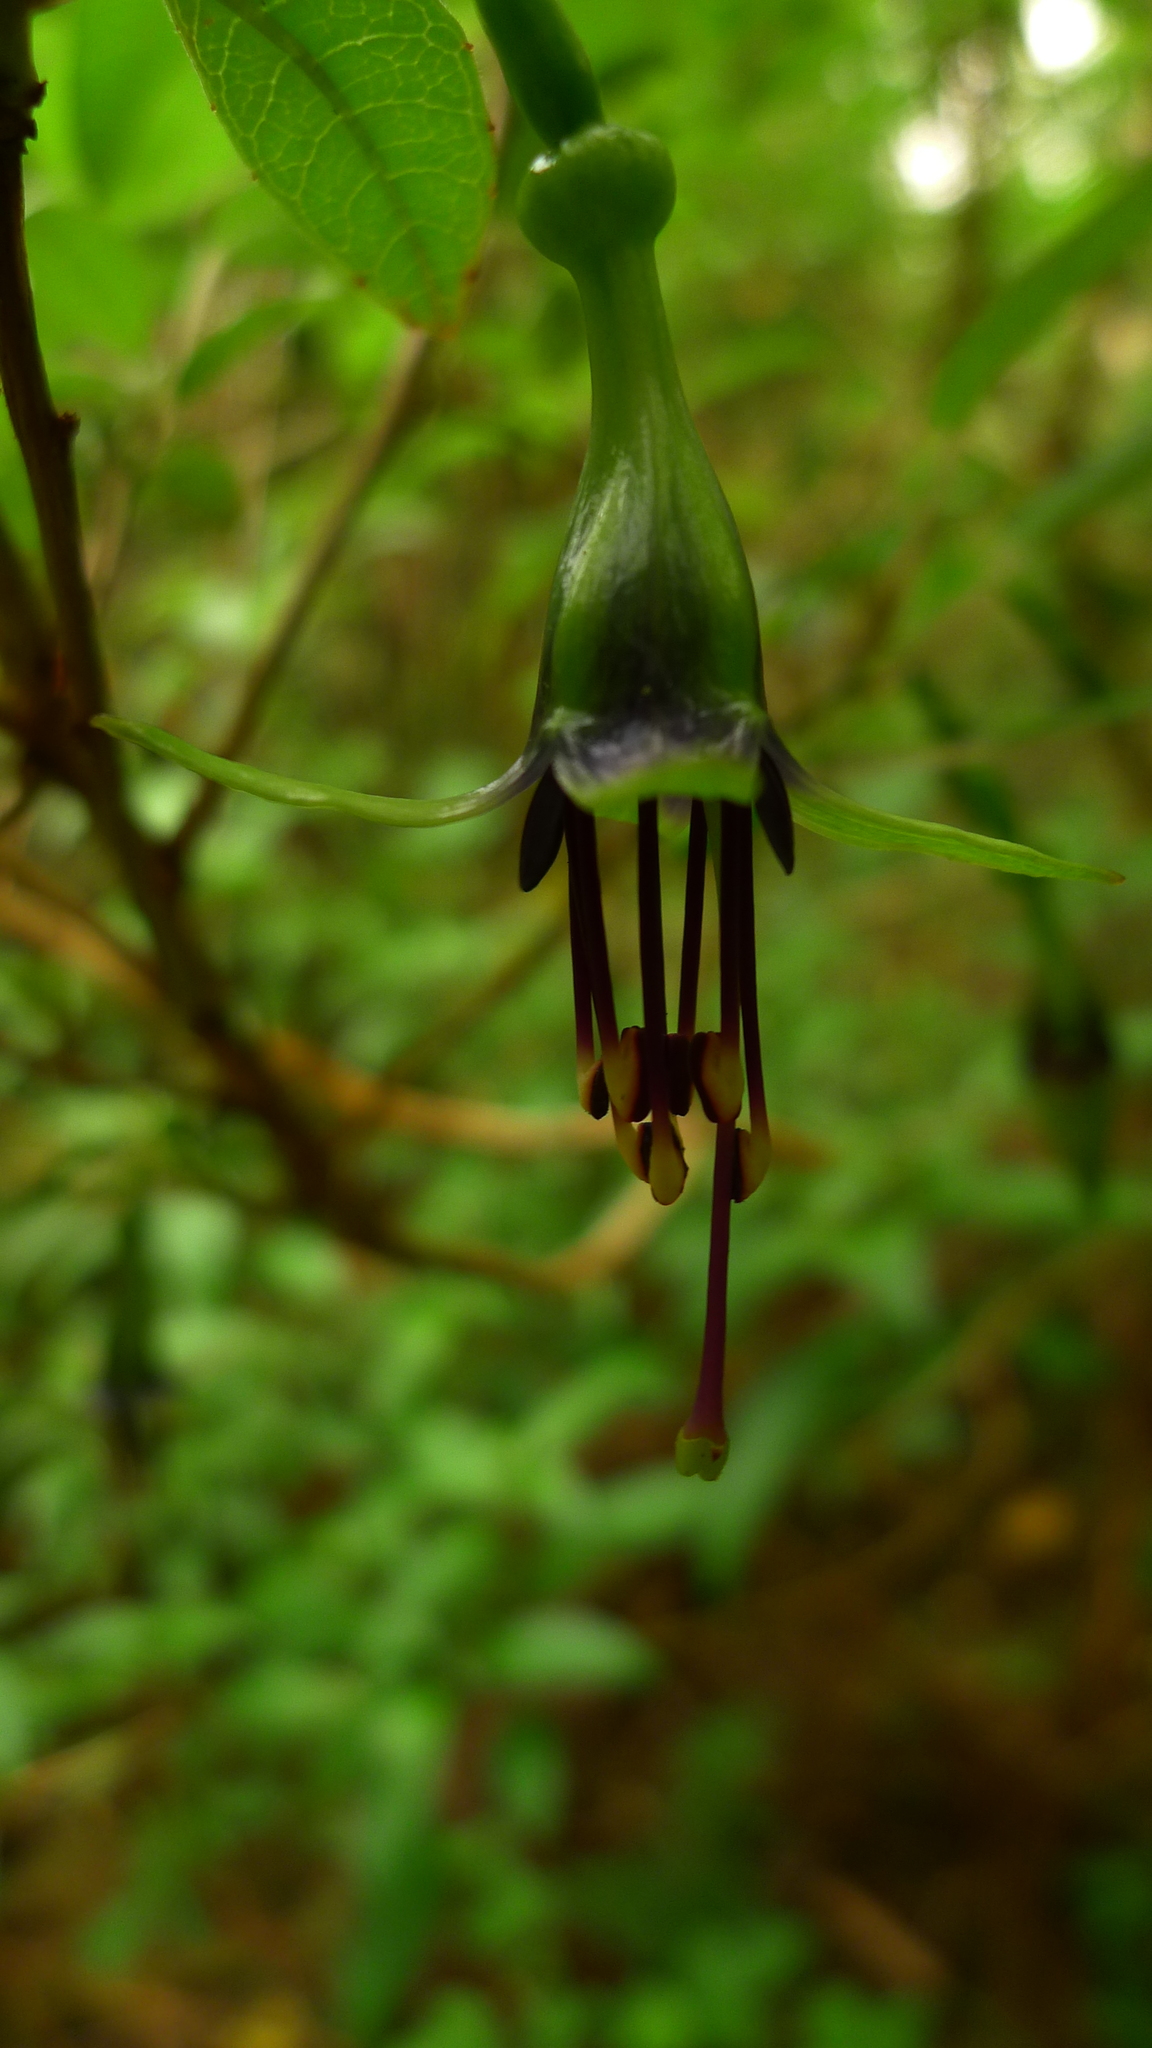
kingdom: Plantae
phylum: Tracheophyta
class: Magnoliopsida
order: Myrtales
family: Onagraceae
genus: Fuchsia
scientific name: Fuchsia excorticata
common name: Tree fuchsia
